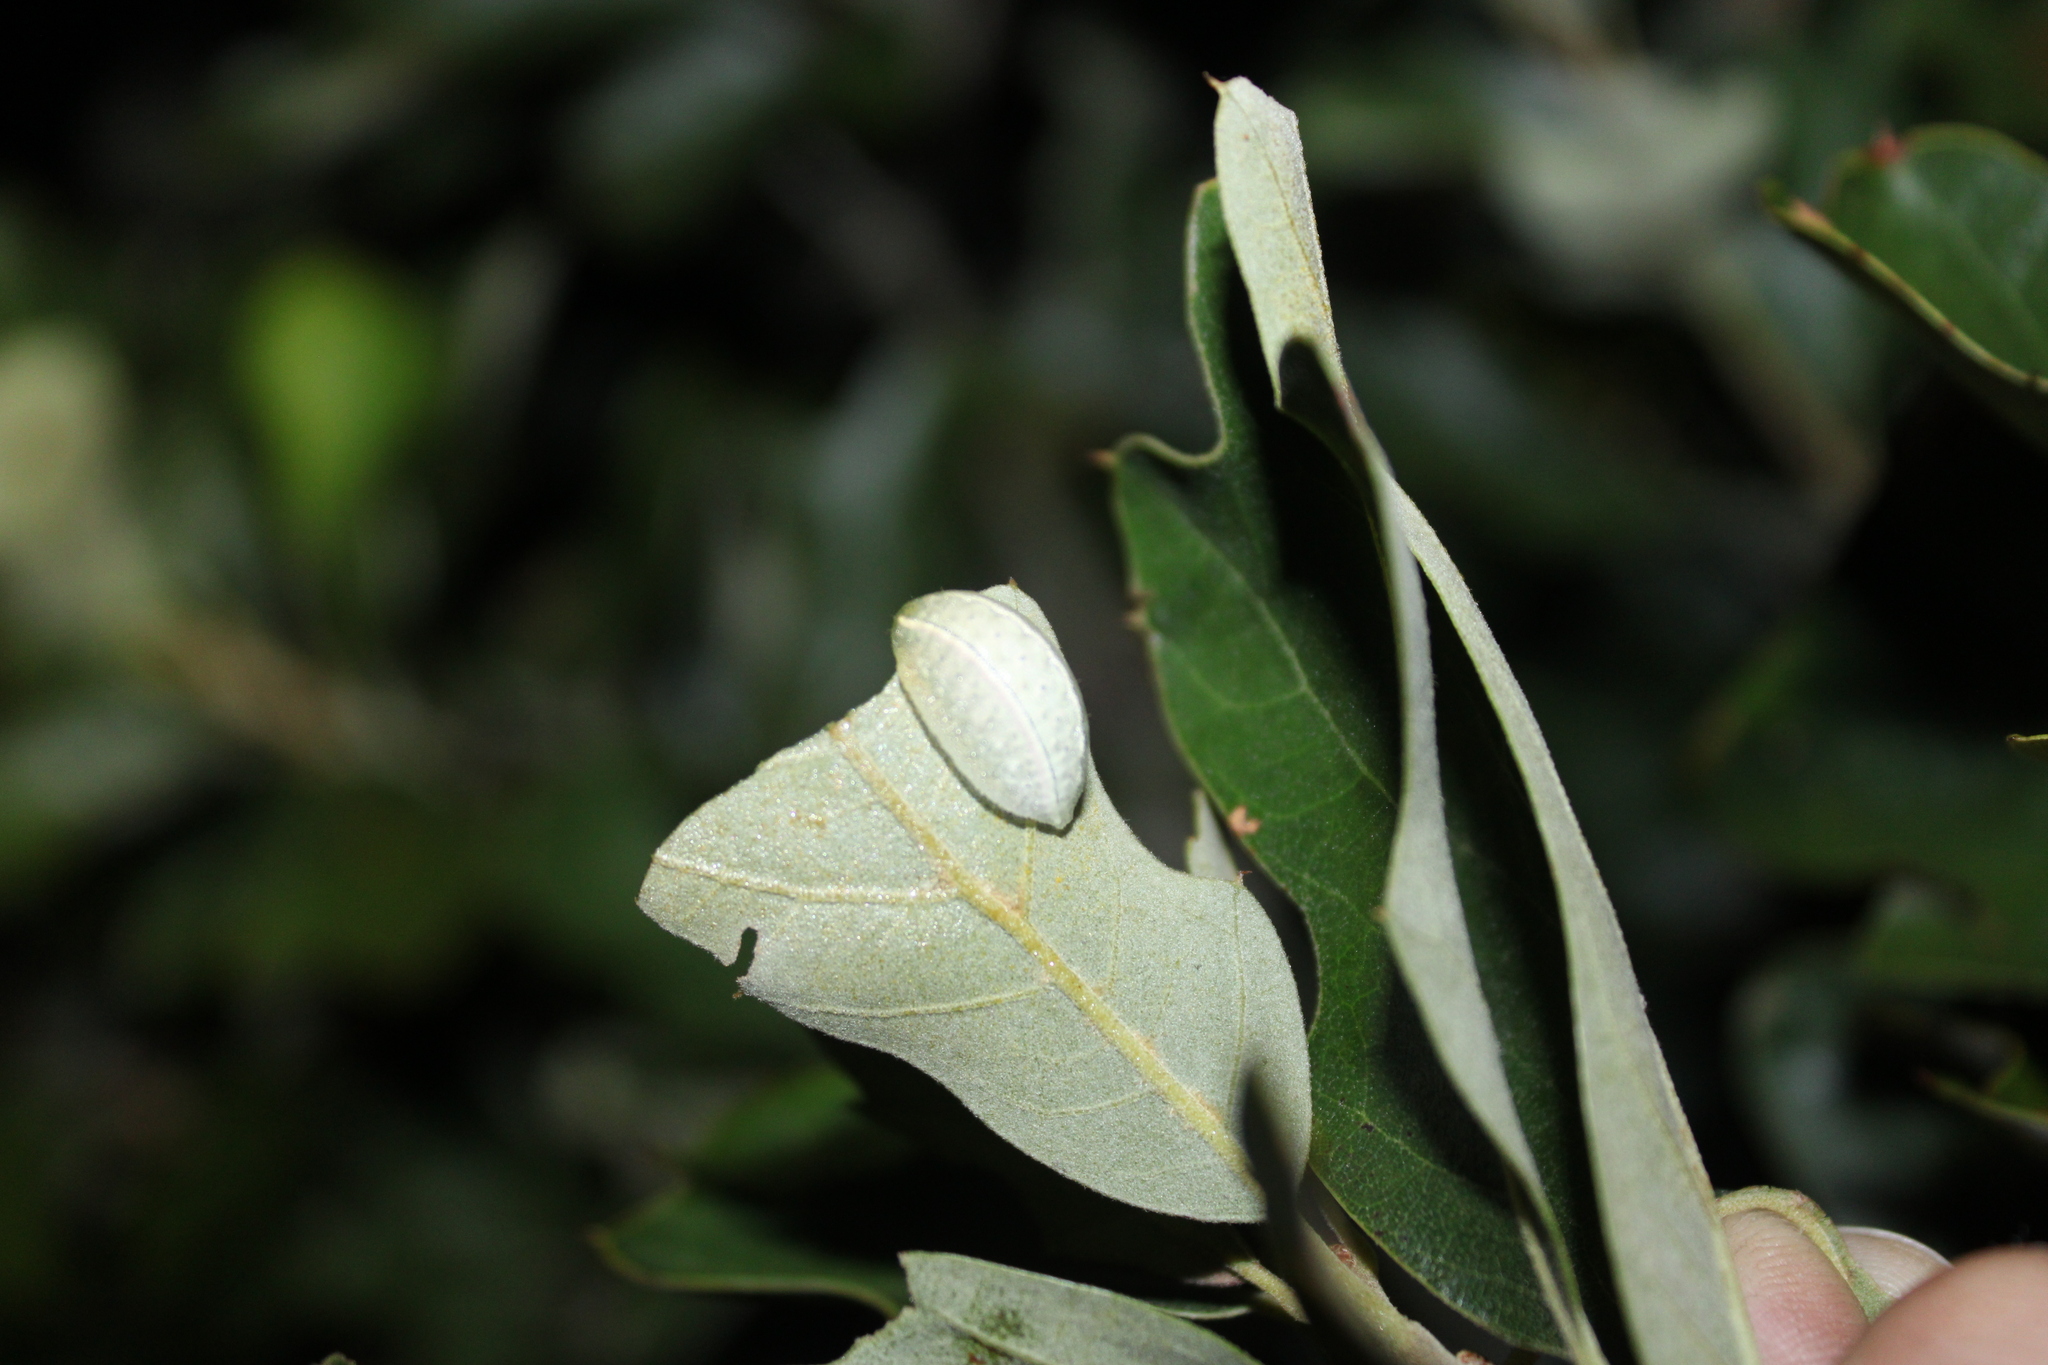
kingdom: Animalia
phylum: Arthropoda
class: Insecta
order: Lepidoptera
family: Limacodidae
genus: Apoda
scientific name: Apoda biguttata
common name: Shagreened slug moth
